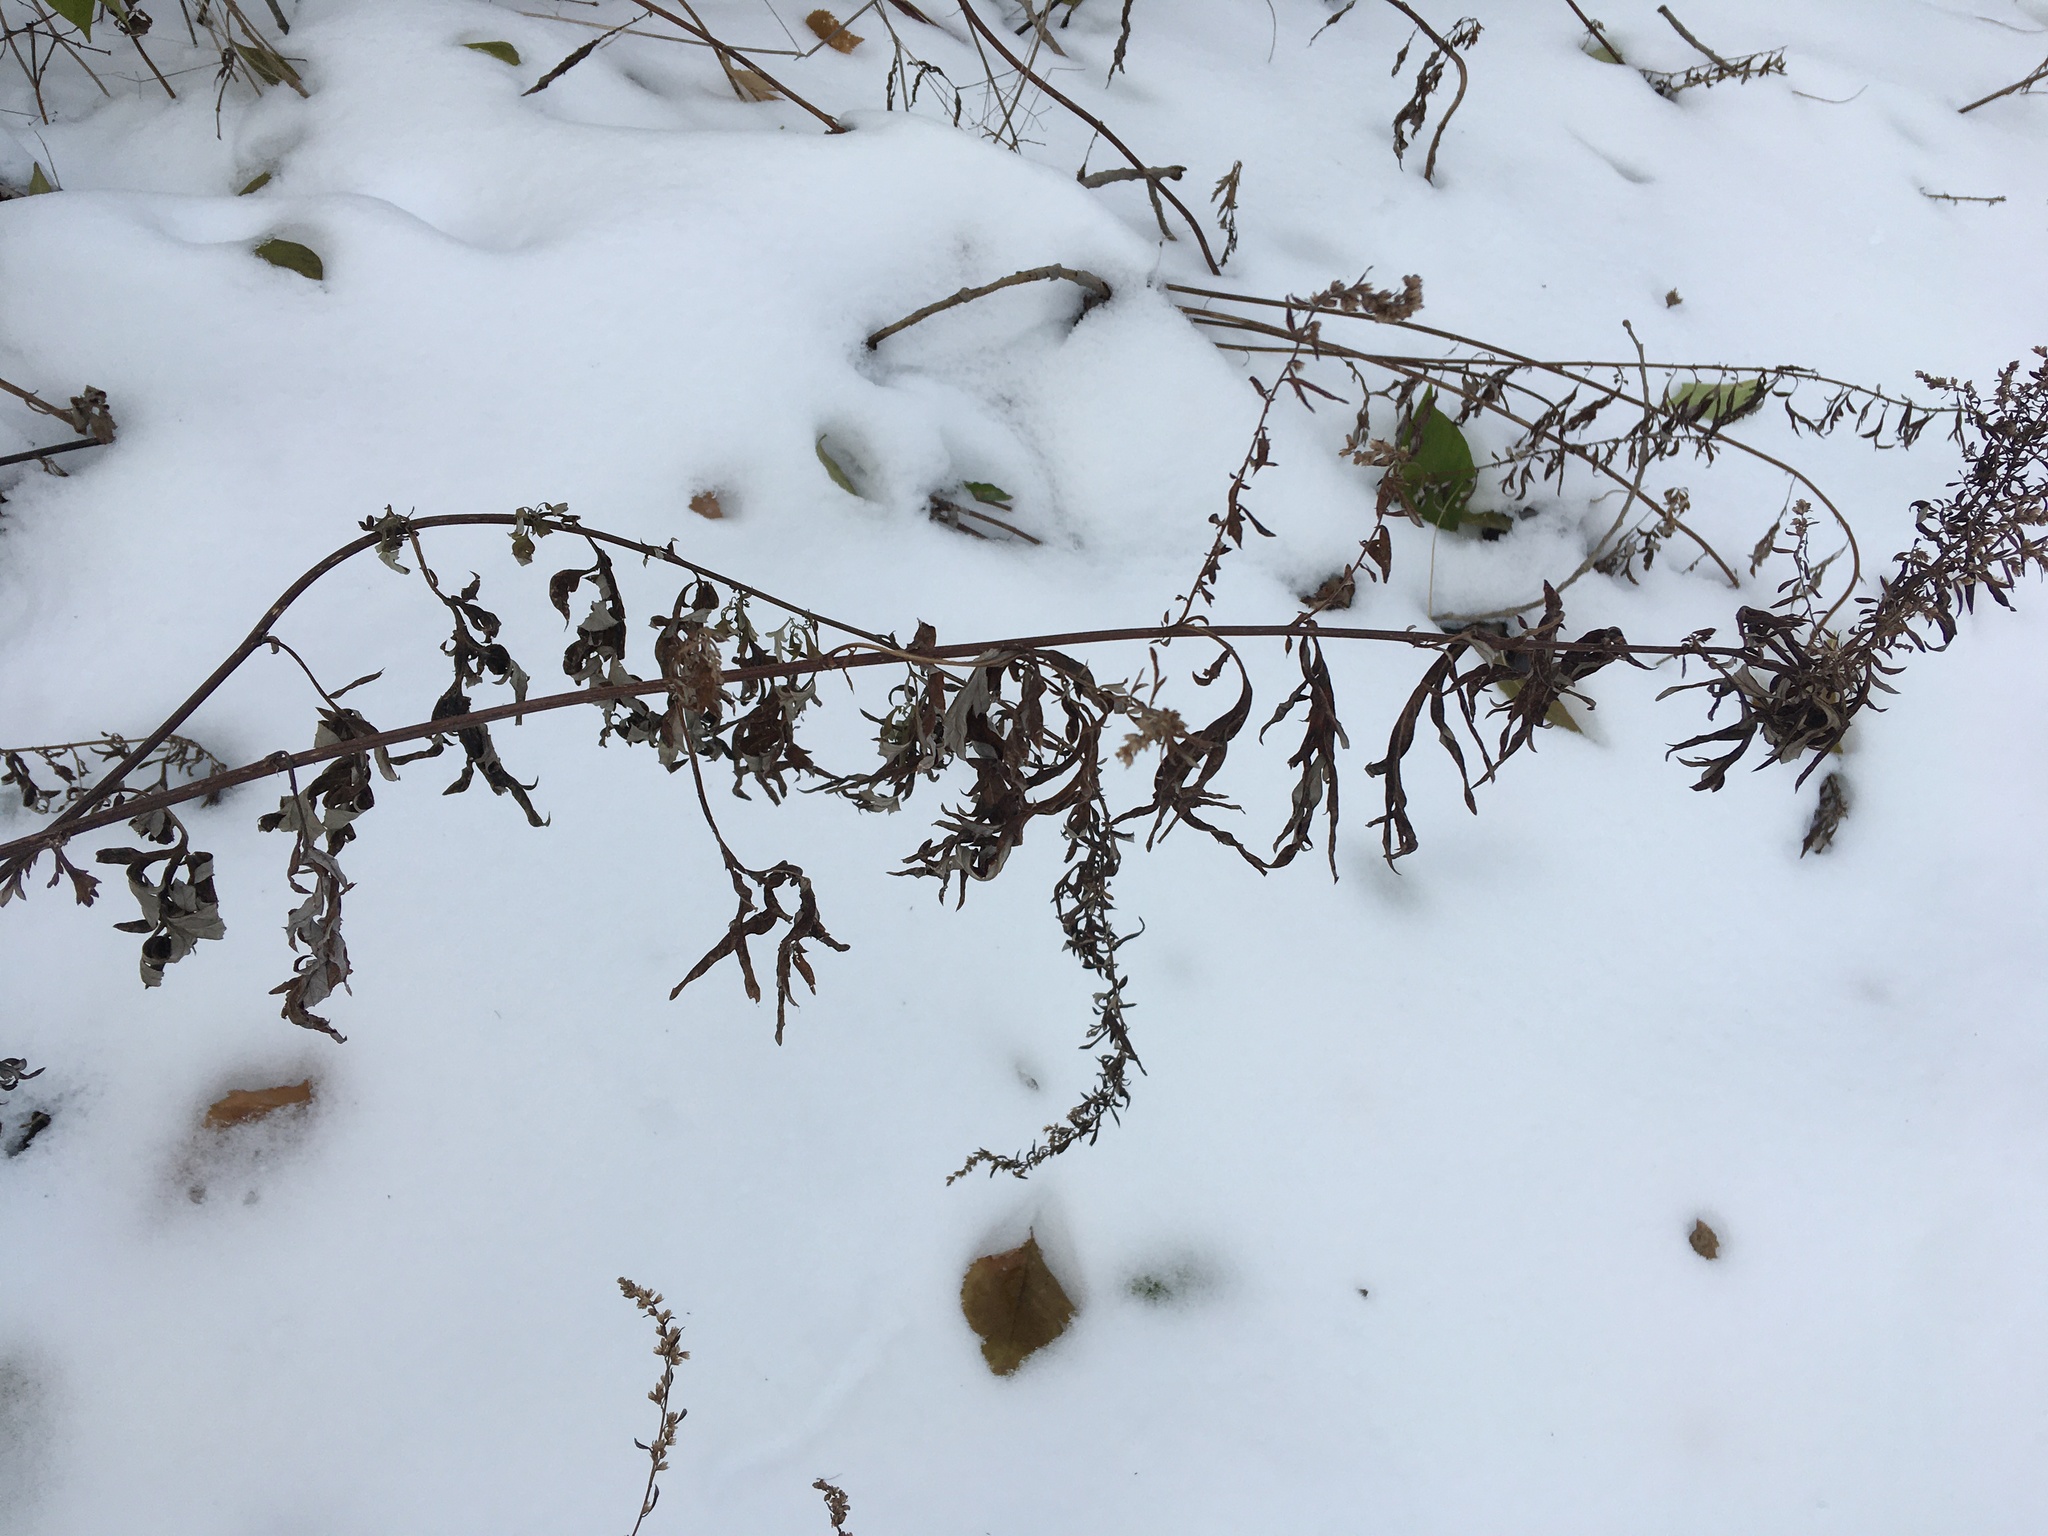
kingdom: Plantae
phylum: Tracheophyta
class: Magnoliopsida
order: Asterales
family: Asteraceae
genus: Artemisia
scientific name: Artemisia vulgaris
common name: Mugwort
